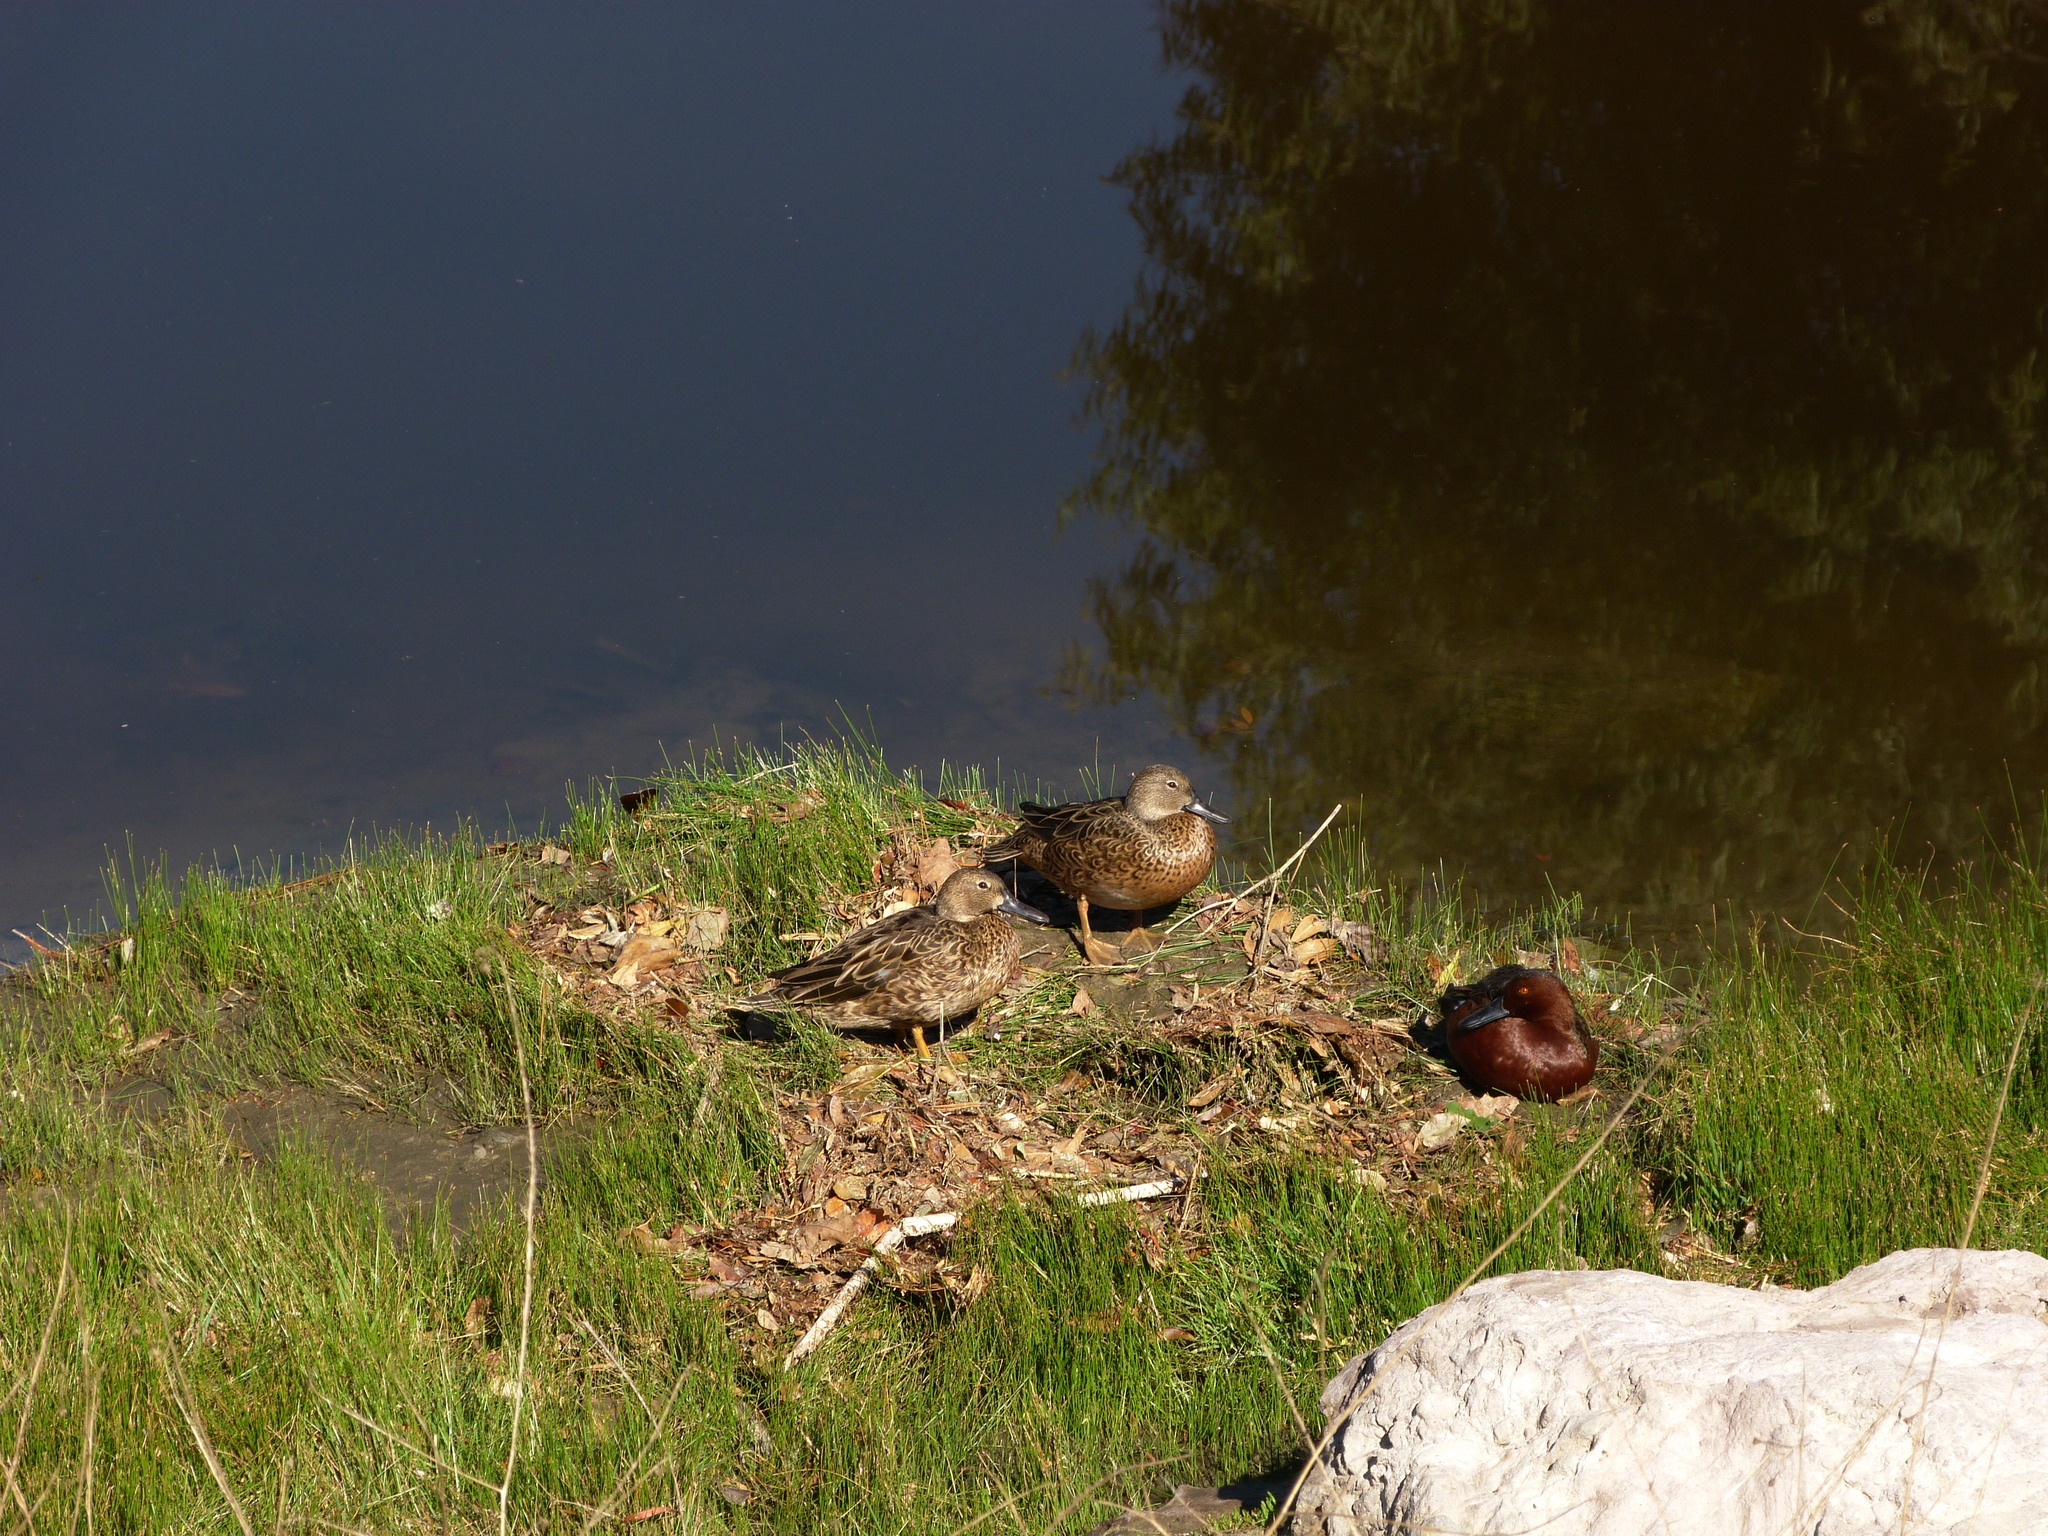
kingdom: Animalia
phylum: Chordata
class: Aves
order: Anseriformes
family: Anatidae
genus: Spatula
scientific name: Spatula cyanoptera
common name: Cinnamon teal
